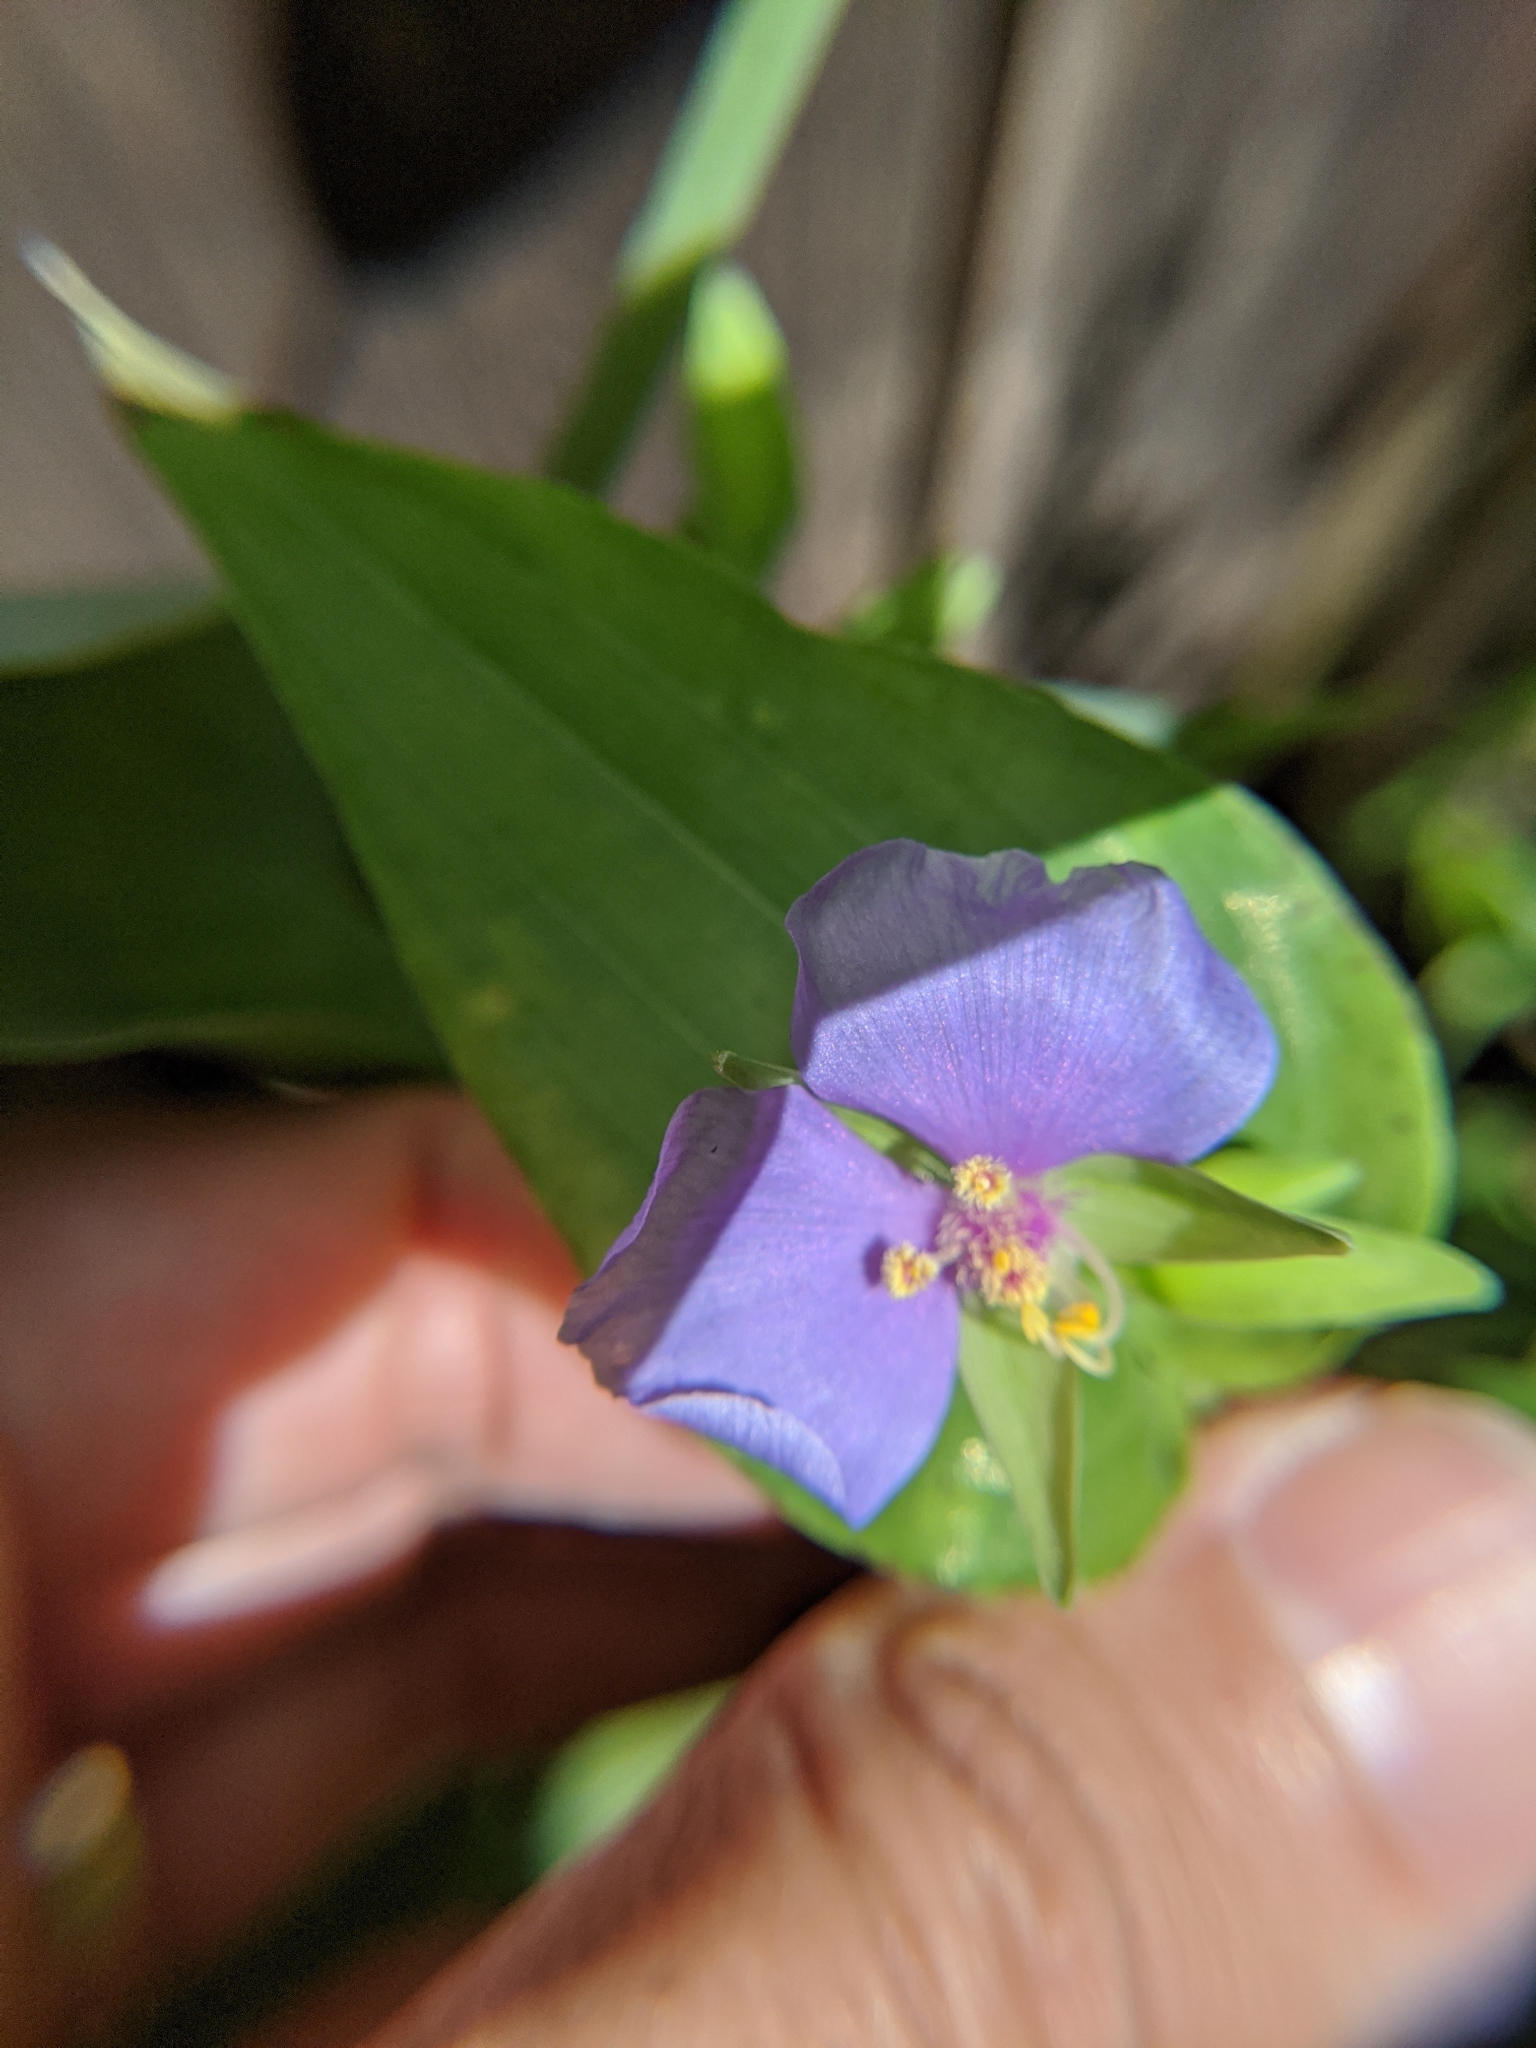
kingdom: Plantae
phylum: Tracheophyta
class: Liliopsida
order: Commelinales
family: Commelinaceae
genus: Tinantia
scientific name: Tinantia anomala
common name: False dayflower
